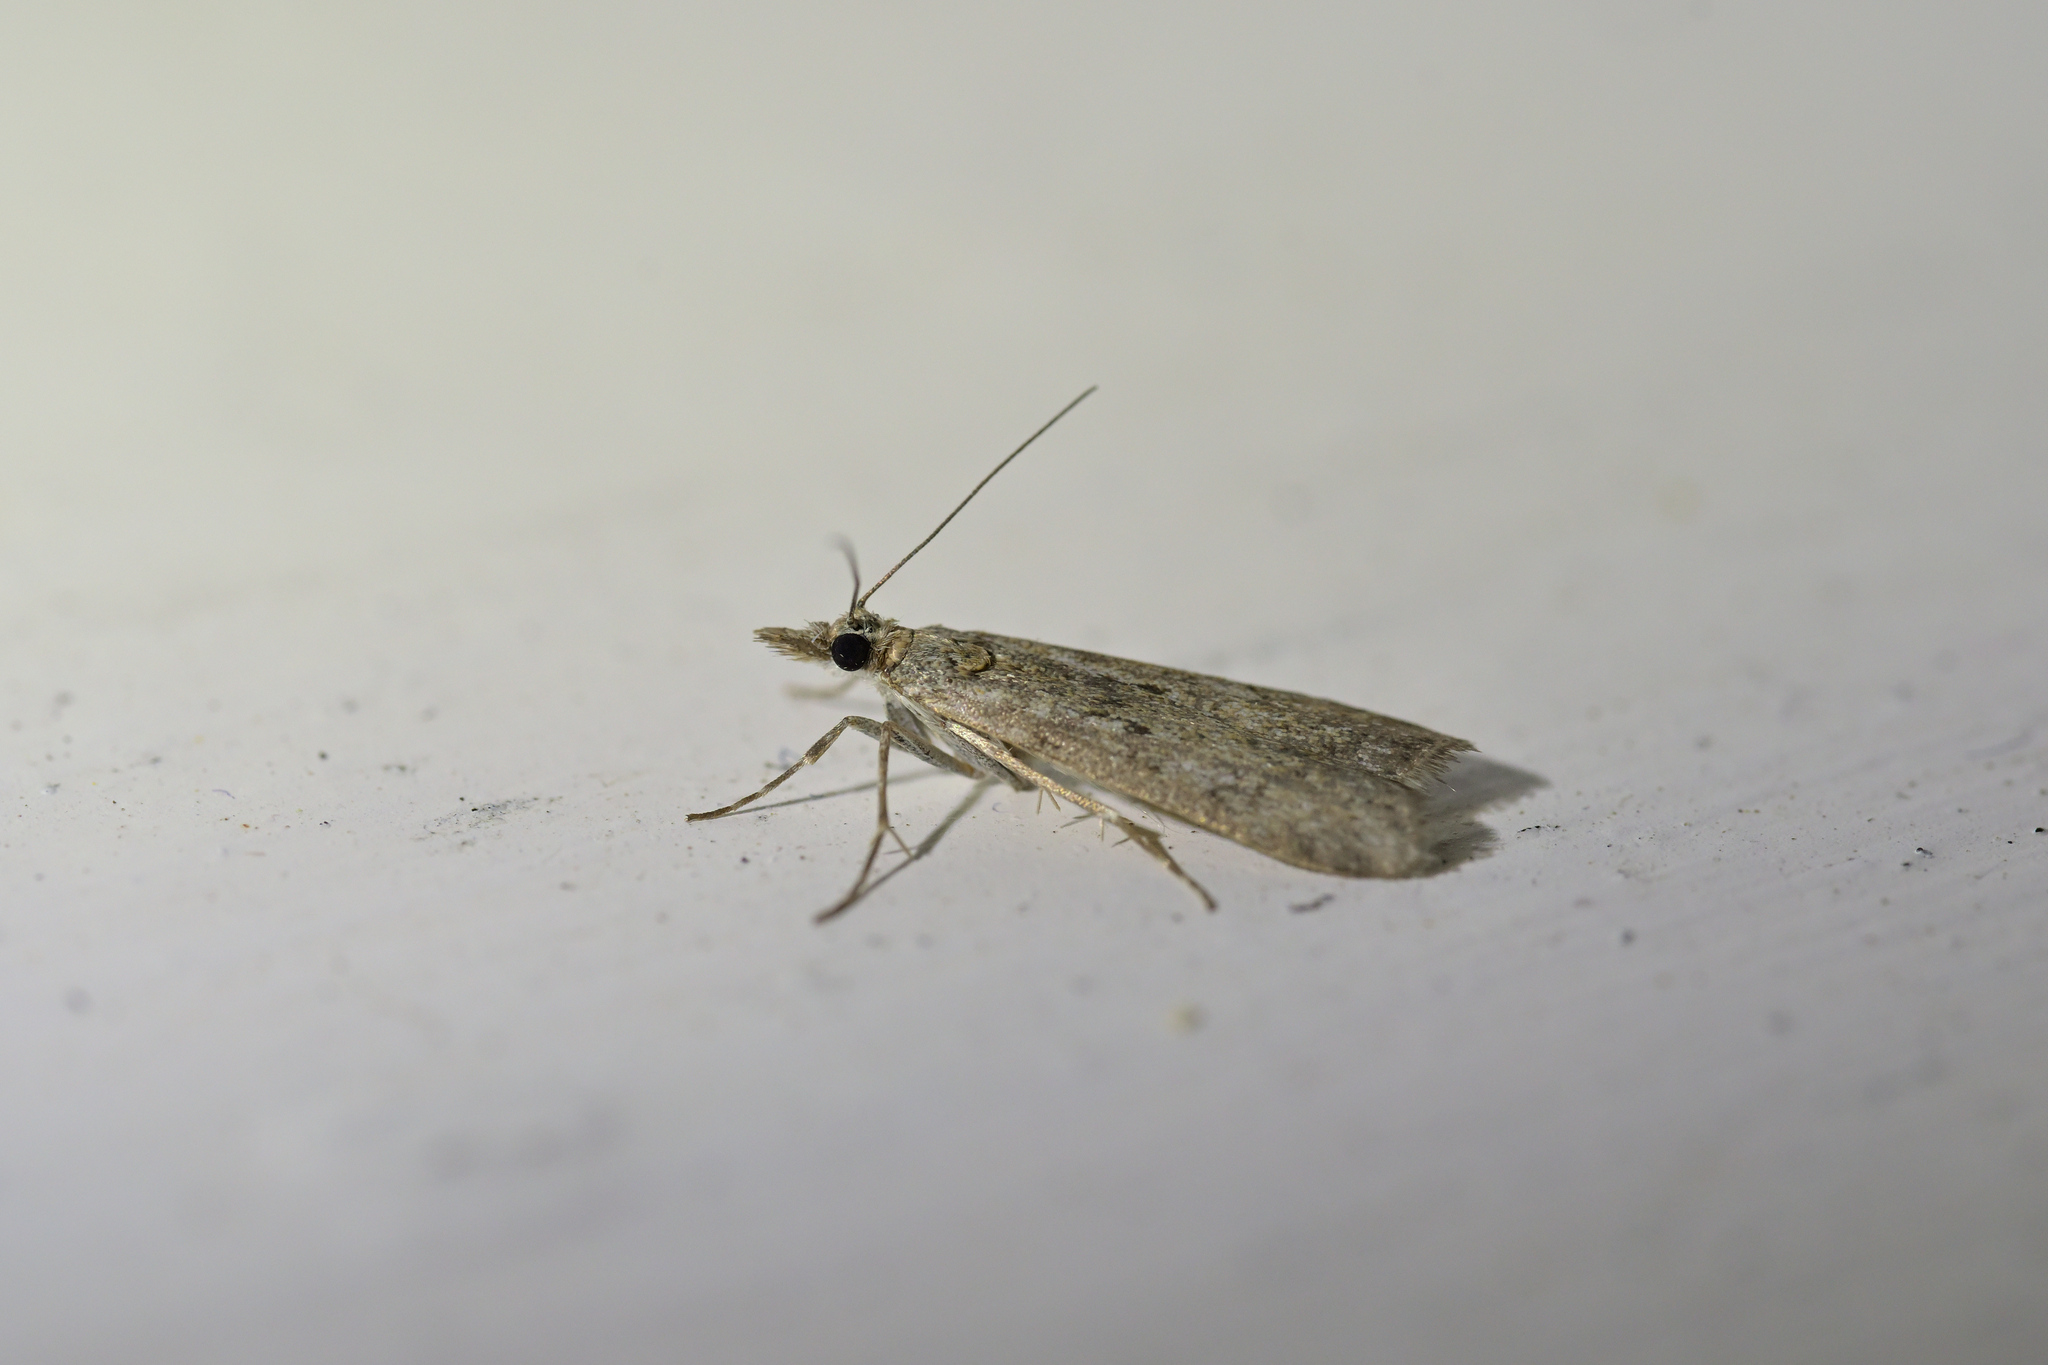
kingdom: Animalia
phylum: Arthropoda
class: Insecta
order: Lepidoptera
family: Crambidae
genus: Eudonia
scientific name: Eudonia leptalea
